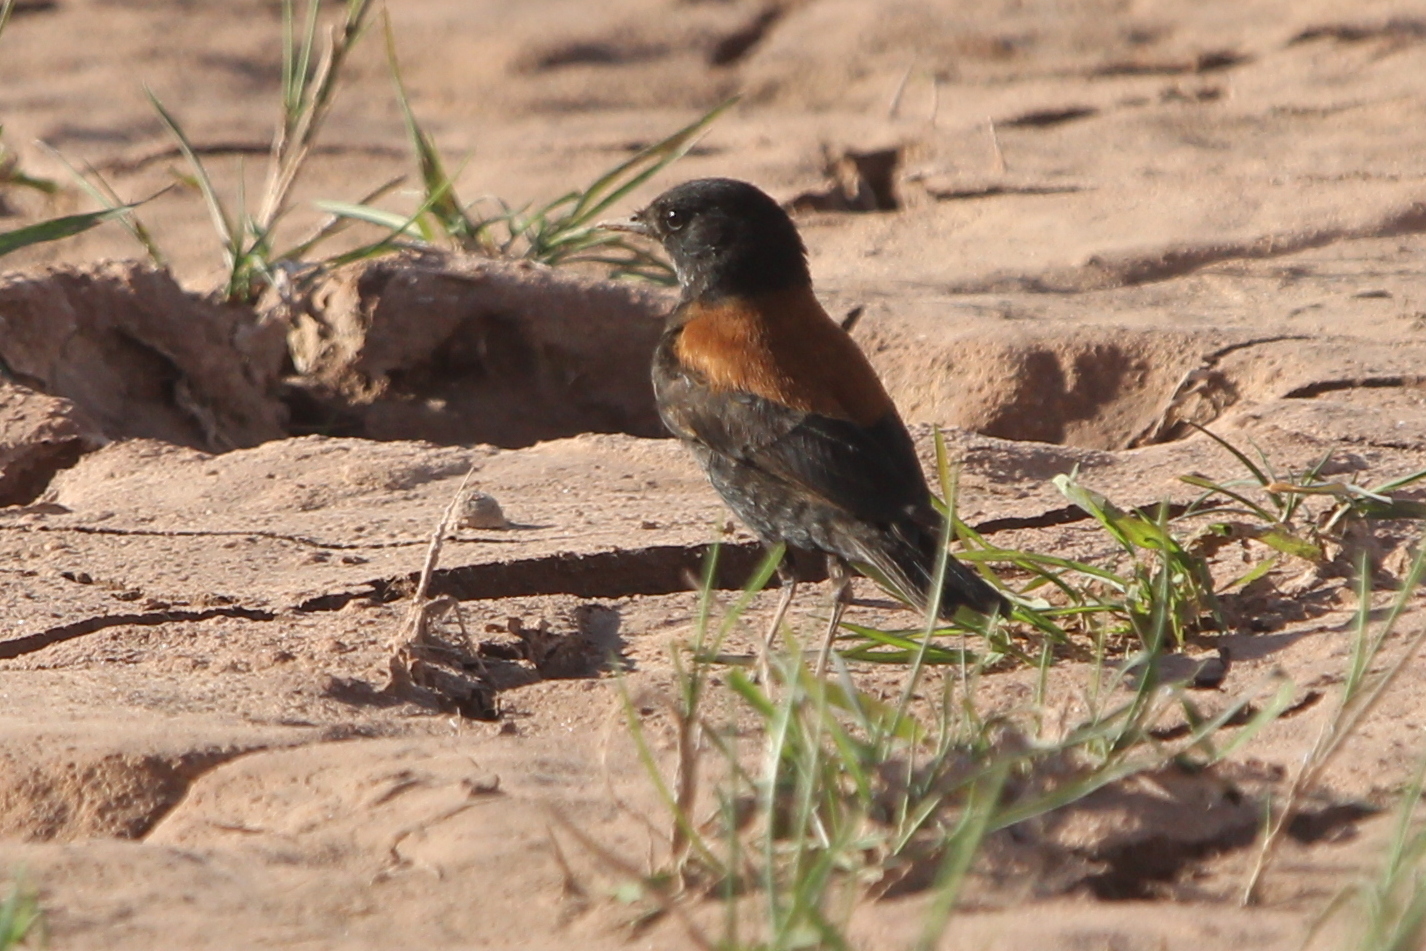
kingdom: Animalia
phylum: Chordata
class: Aves
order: Passeriformes
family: Tyrannidae
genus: Lessonia
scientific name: Lessonia rufa
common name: Austral negrito
